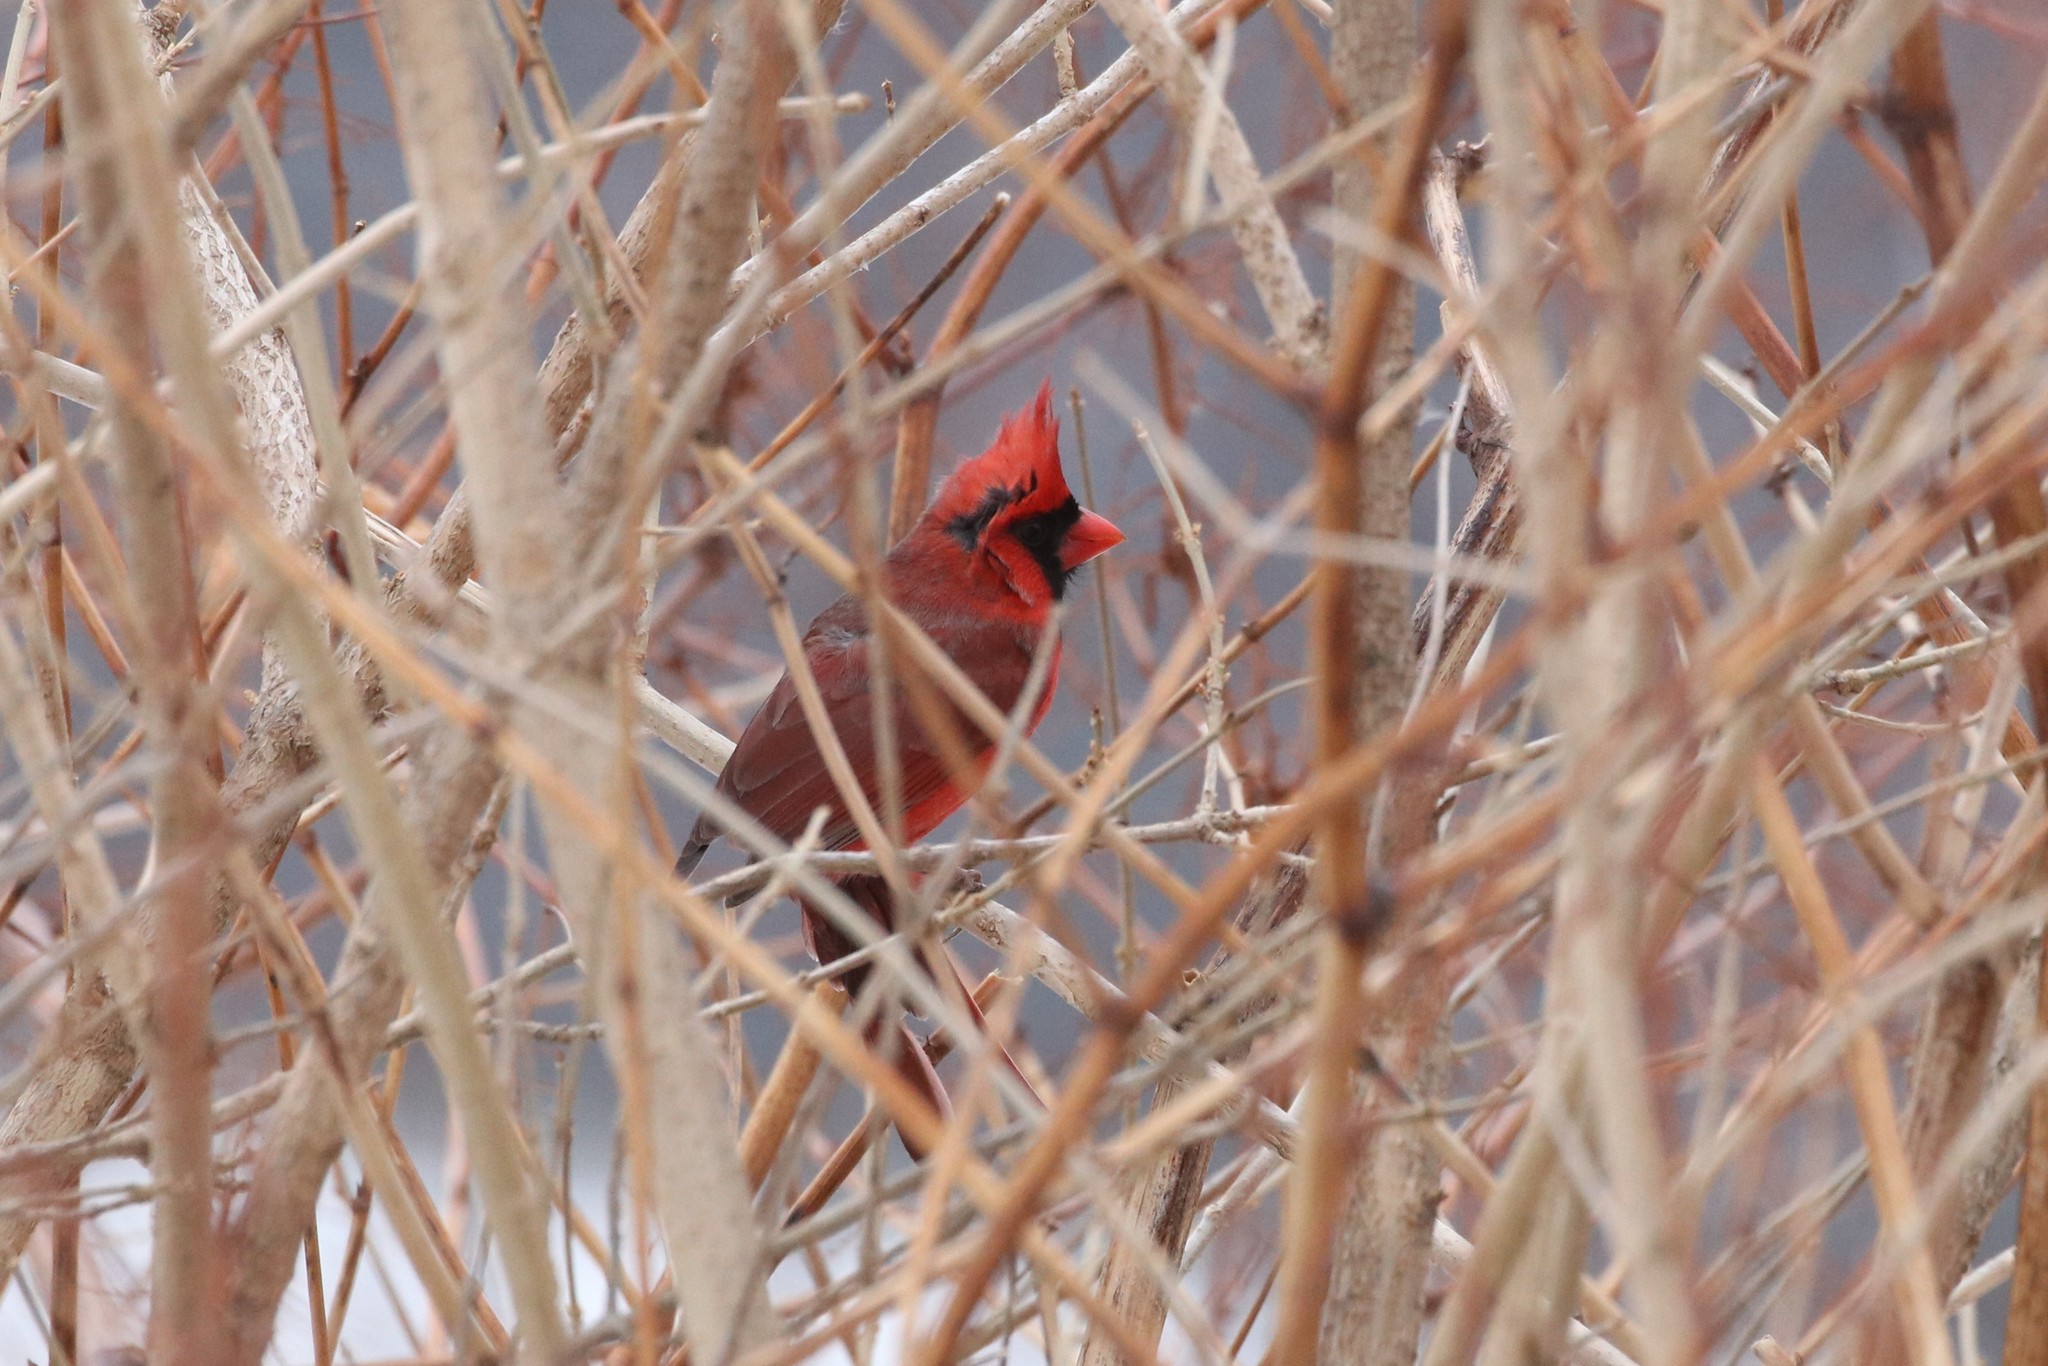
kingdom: Animalia
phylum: Chordata
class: Aves
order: Passeriformes
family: Cardinalidae
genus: Cardinalis
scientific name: Cardinalis cardinalis
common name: Northern cardinal
